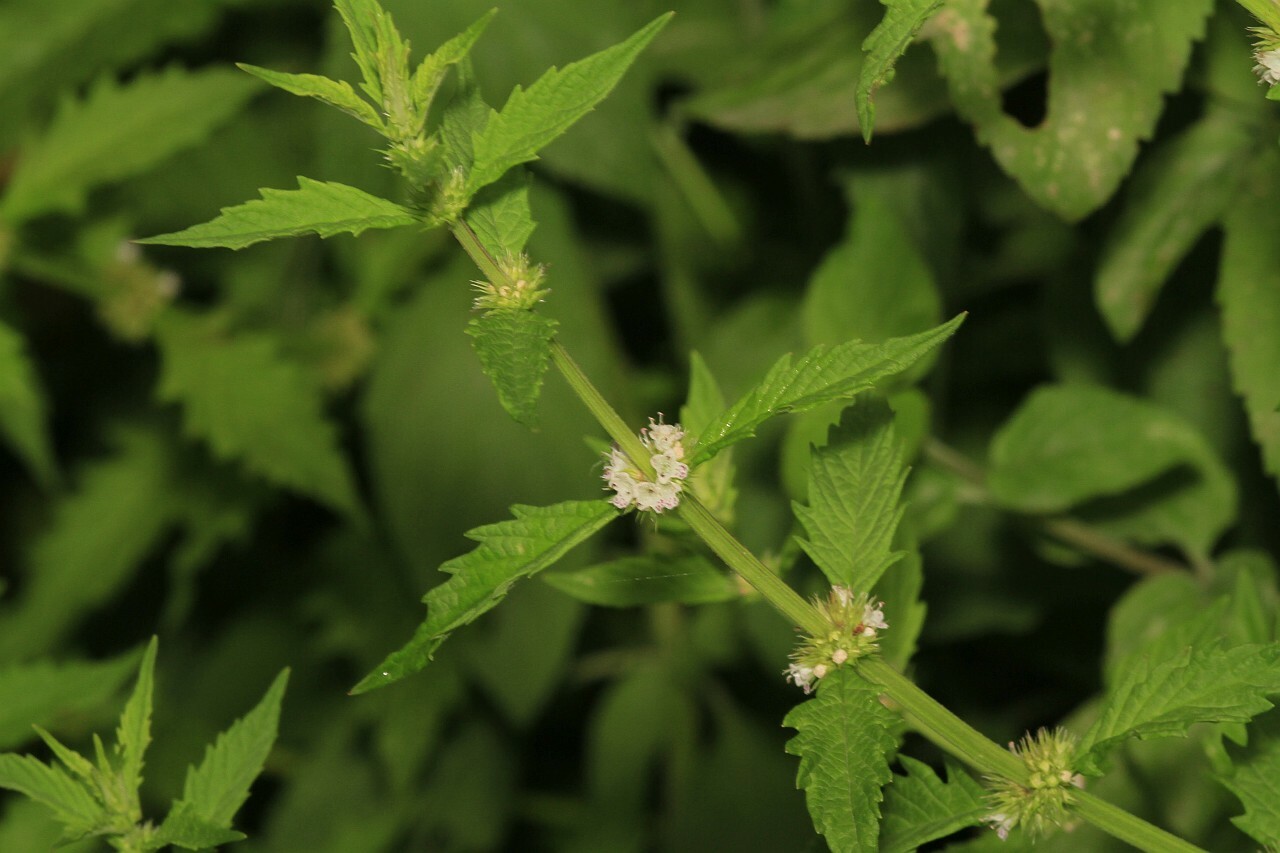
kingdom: Plantae
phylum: Tracheophyta
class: Magnoliopsida
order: Lamiales
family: Lamiaceae
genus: Lycopus
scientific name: Lycopus europaeus
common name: European bugleweed
